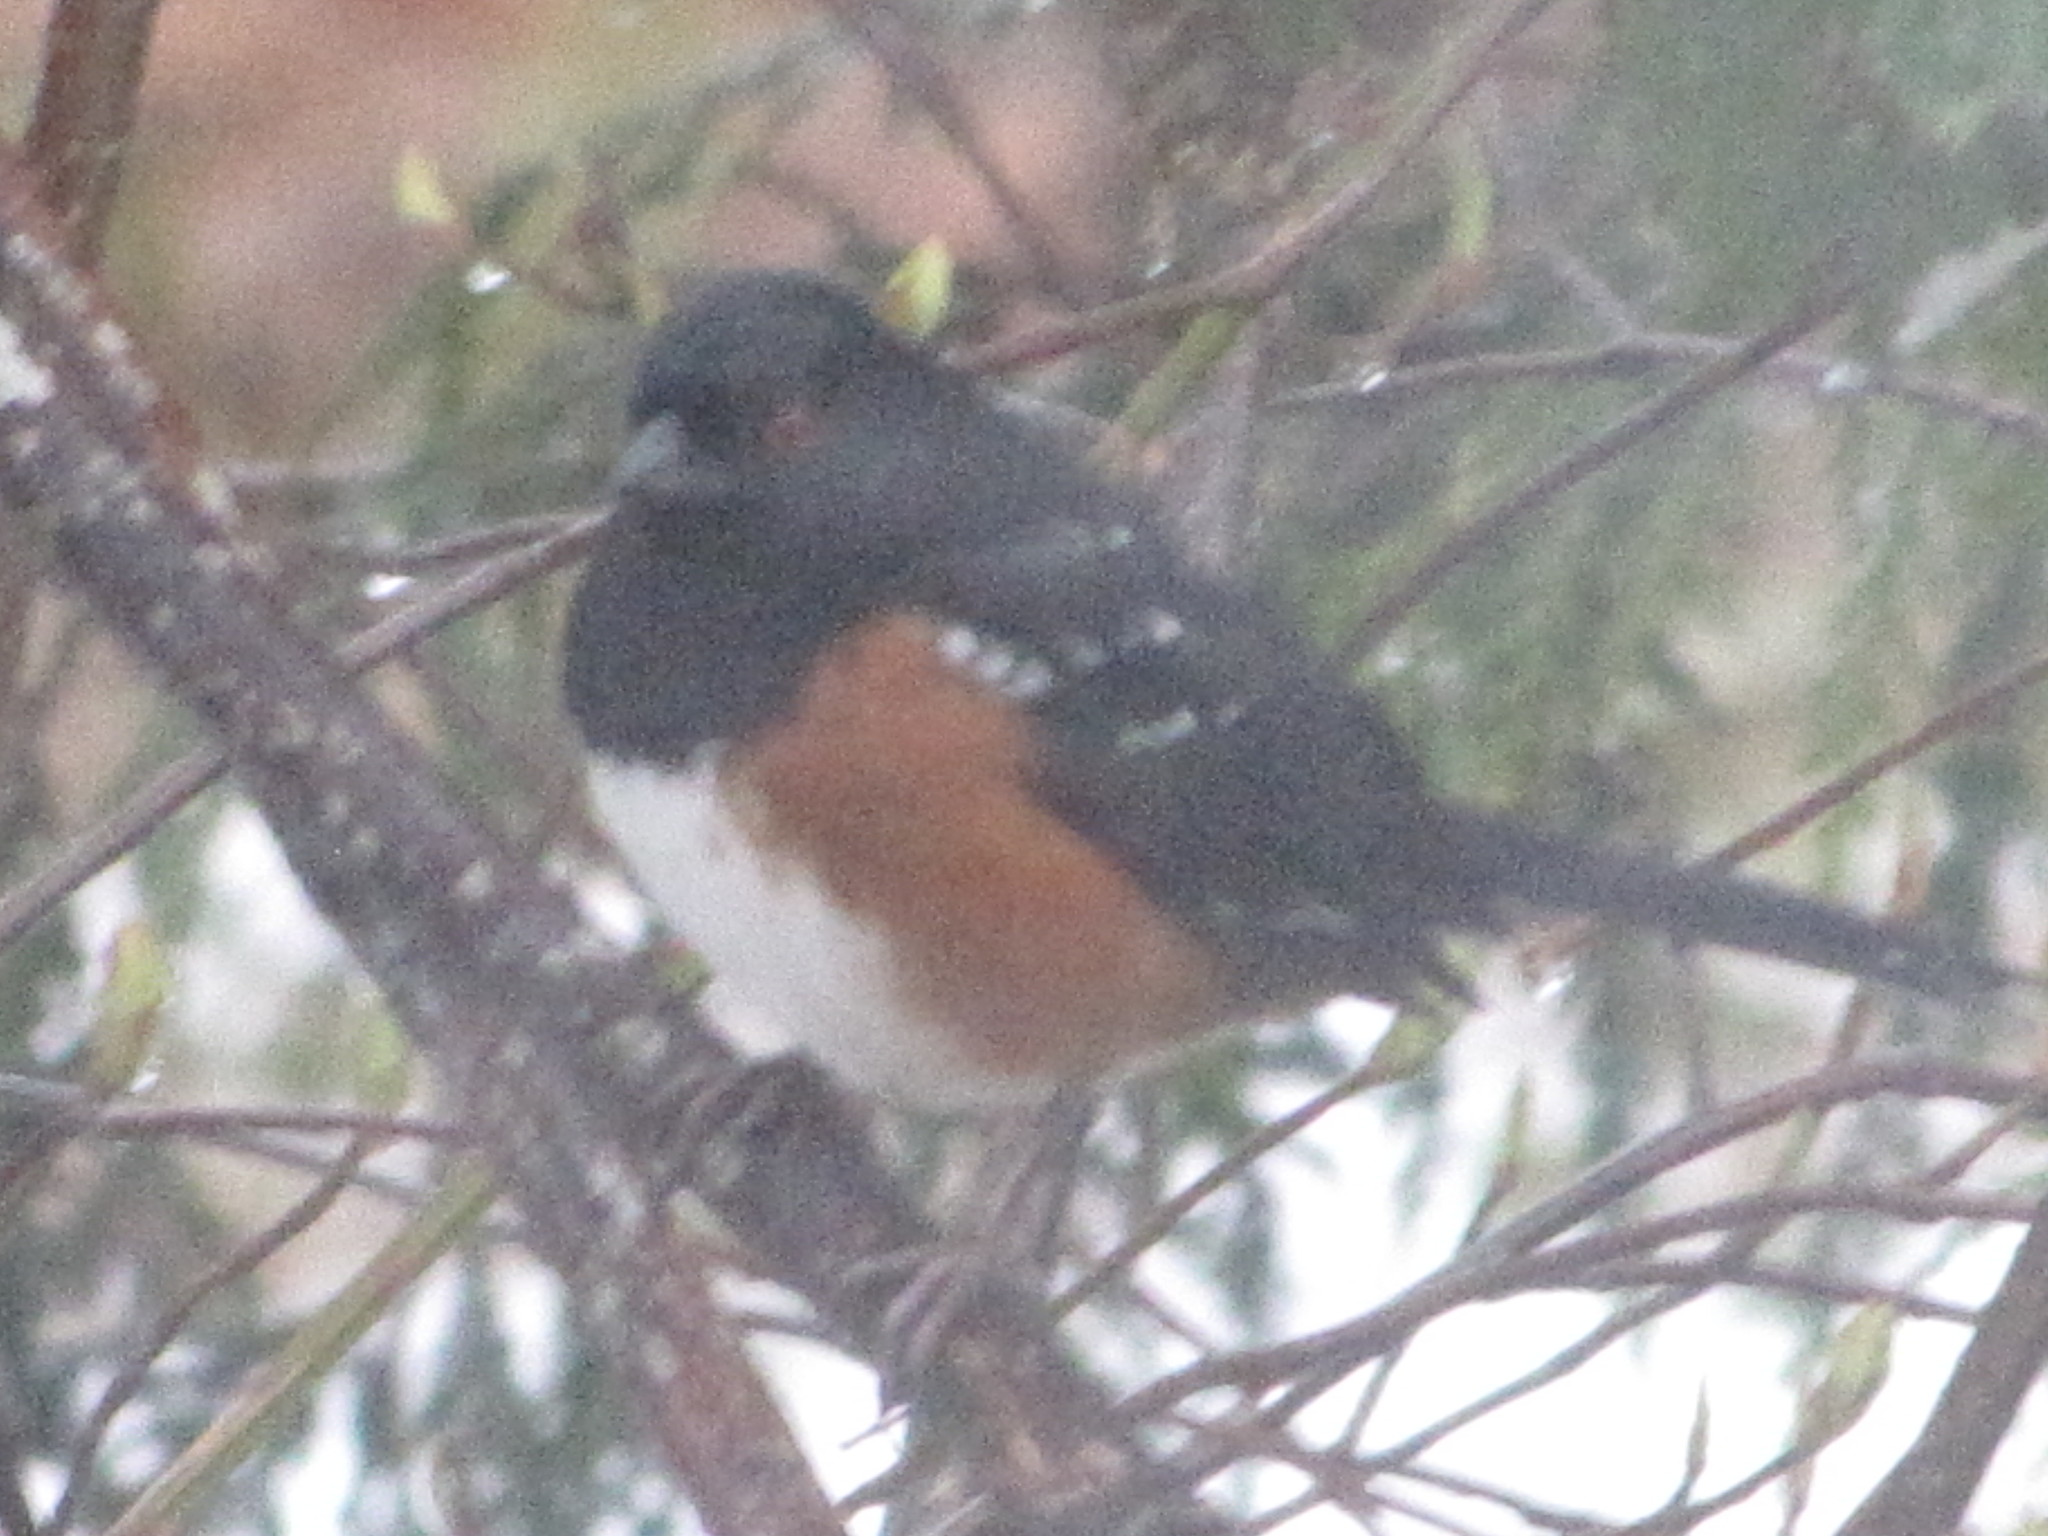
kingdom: Animalia
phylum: Chordata
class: Aves
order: Passeriformes
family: Passerellidae
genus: Pipilo
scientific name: Pipilo maculatus
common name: Spotted towhee
